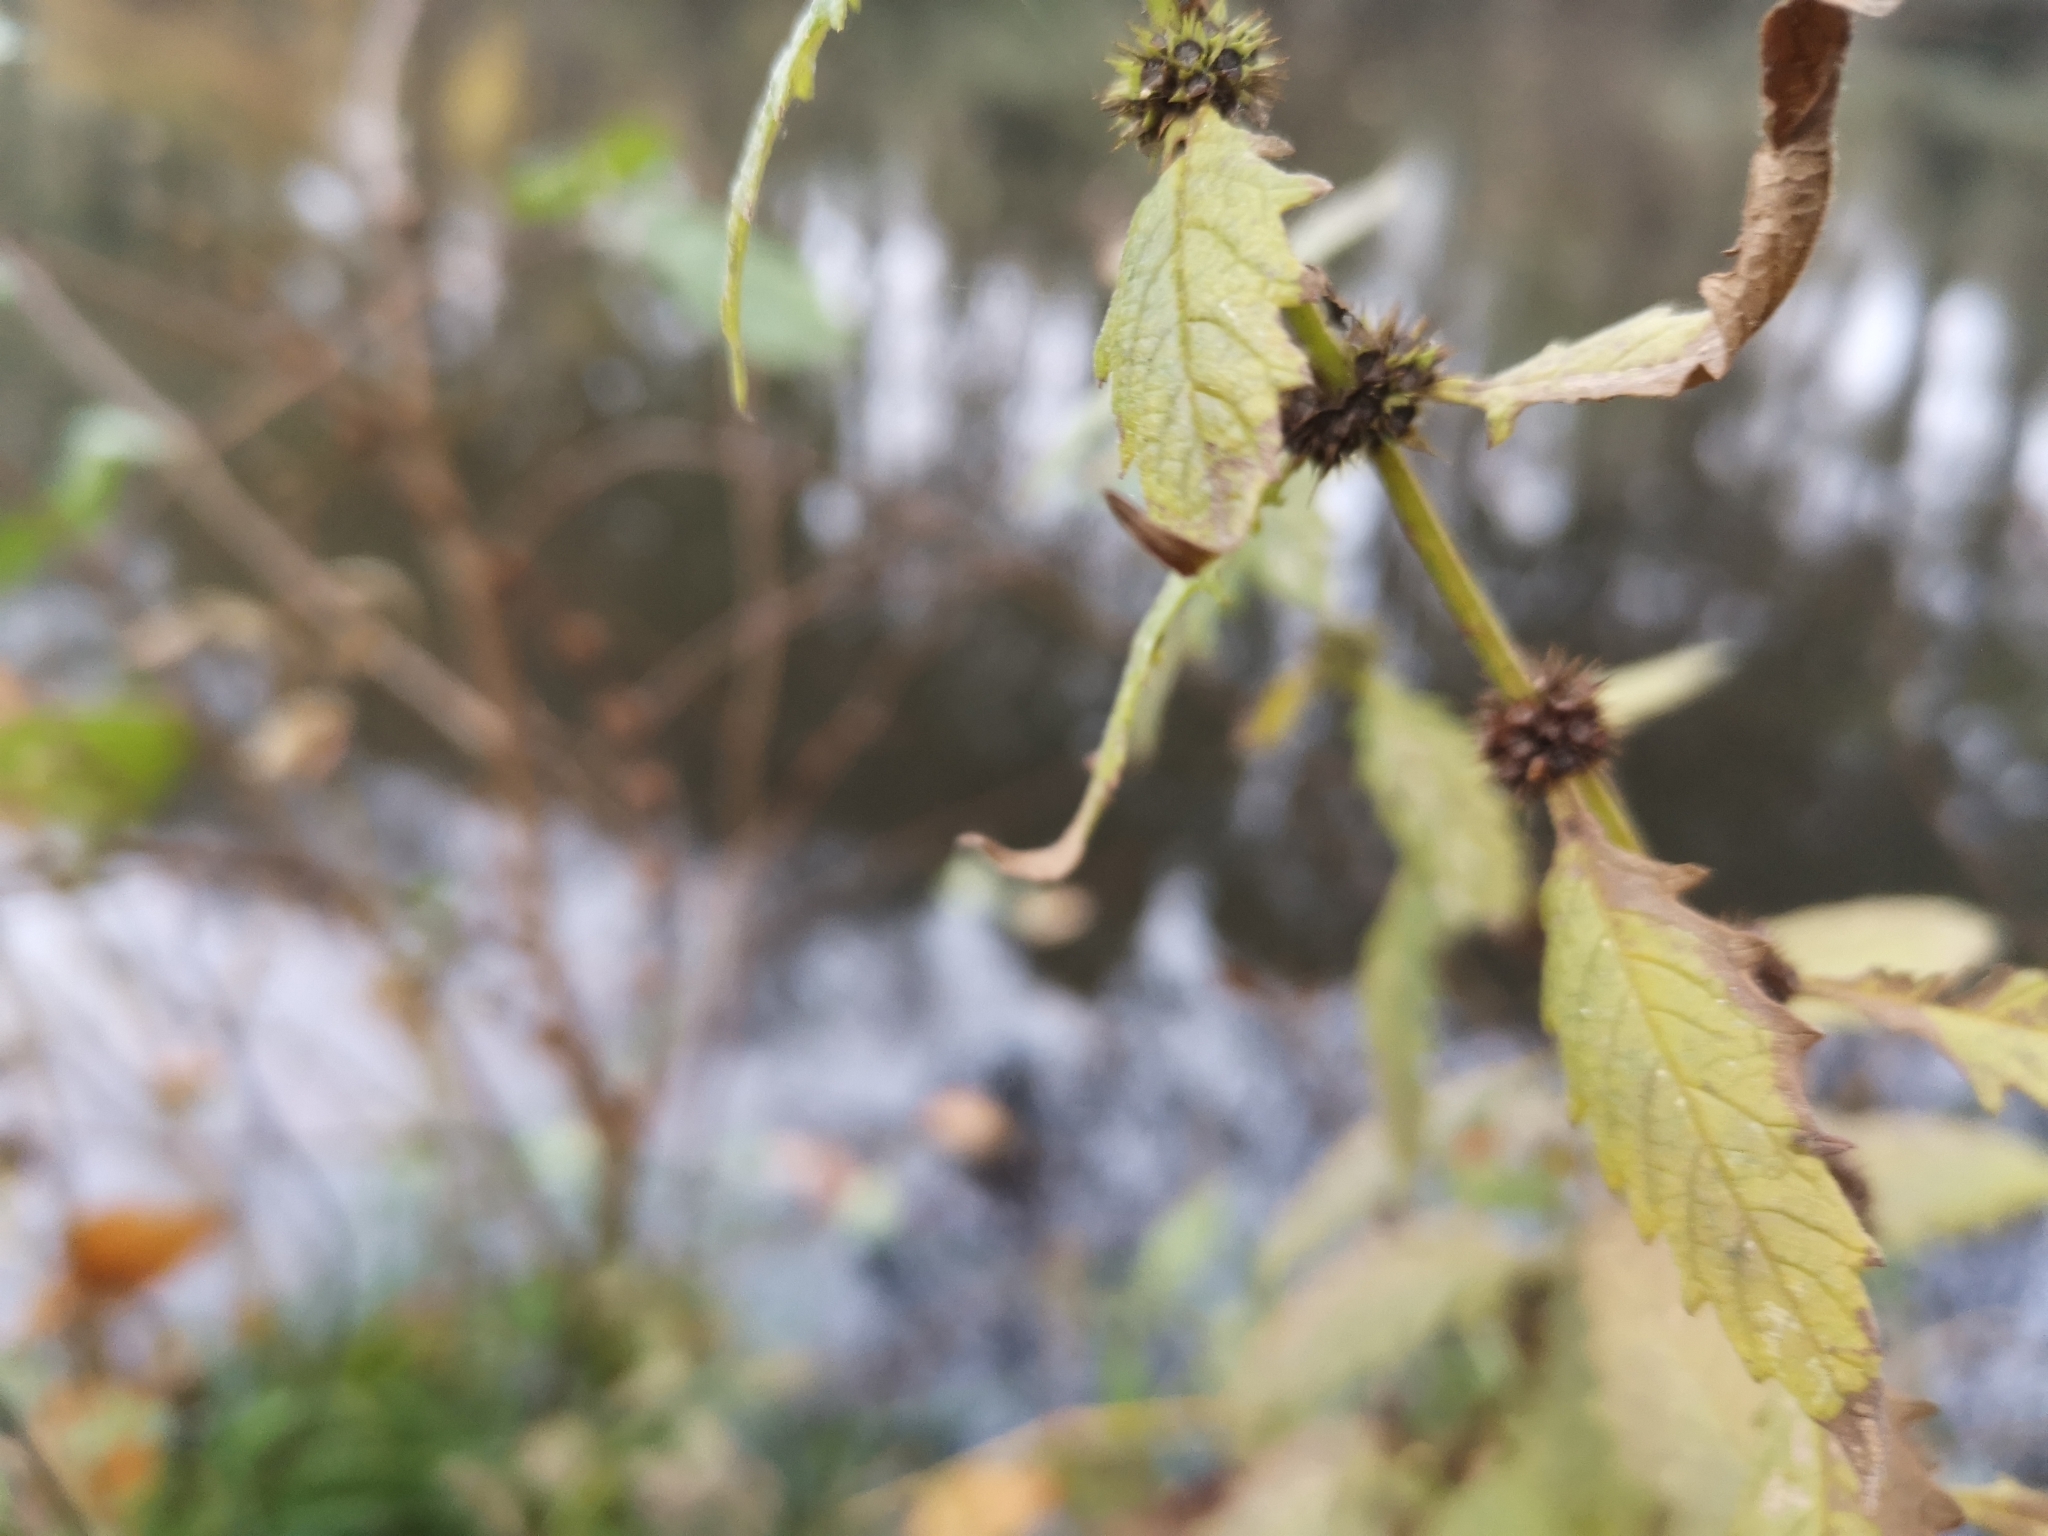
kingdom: Plantae
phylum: Tracheophyta
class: Magnoliopsida
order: Lamiales
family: Lamiaceae
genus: Lycopus
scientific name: Lycopus europaeus
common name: European bugleweed
